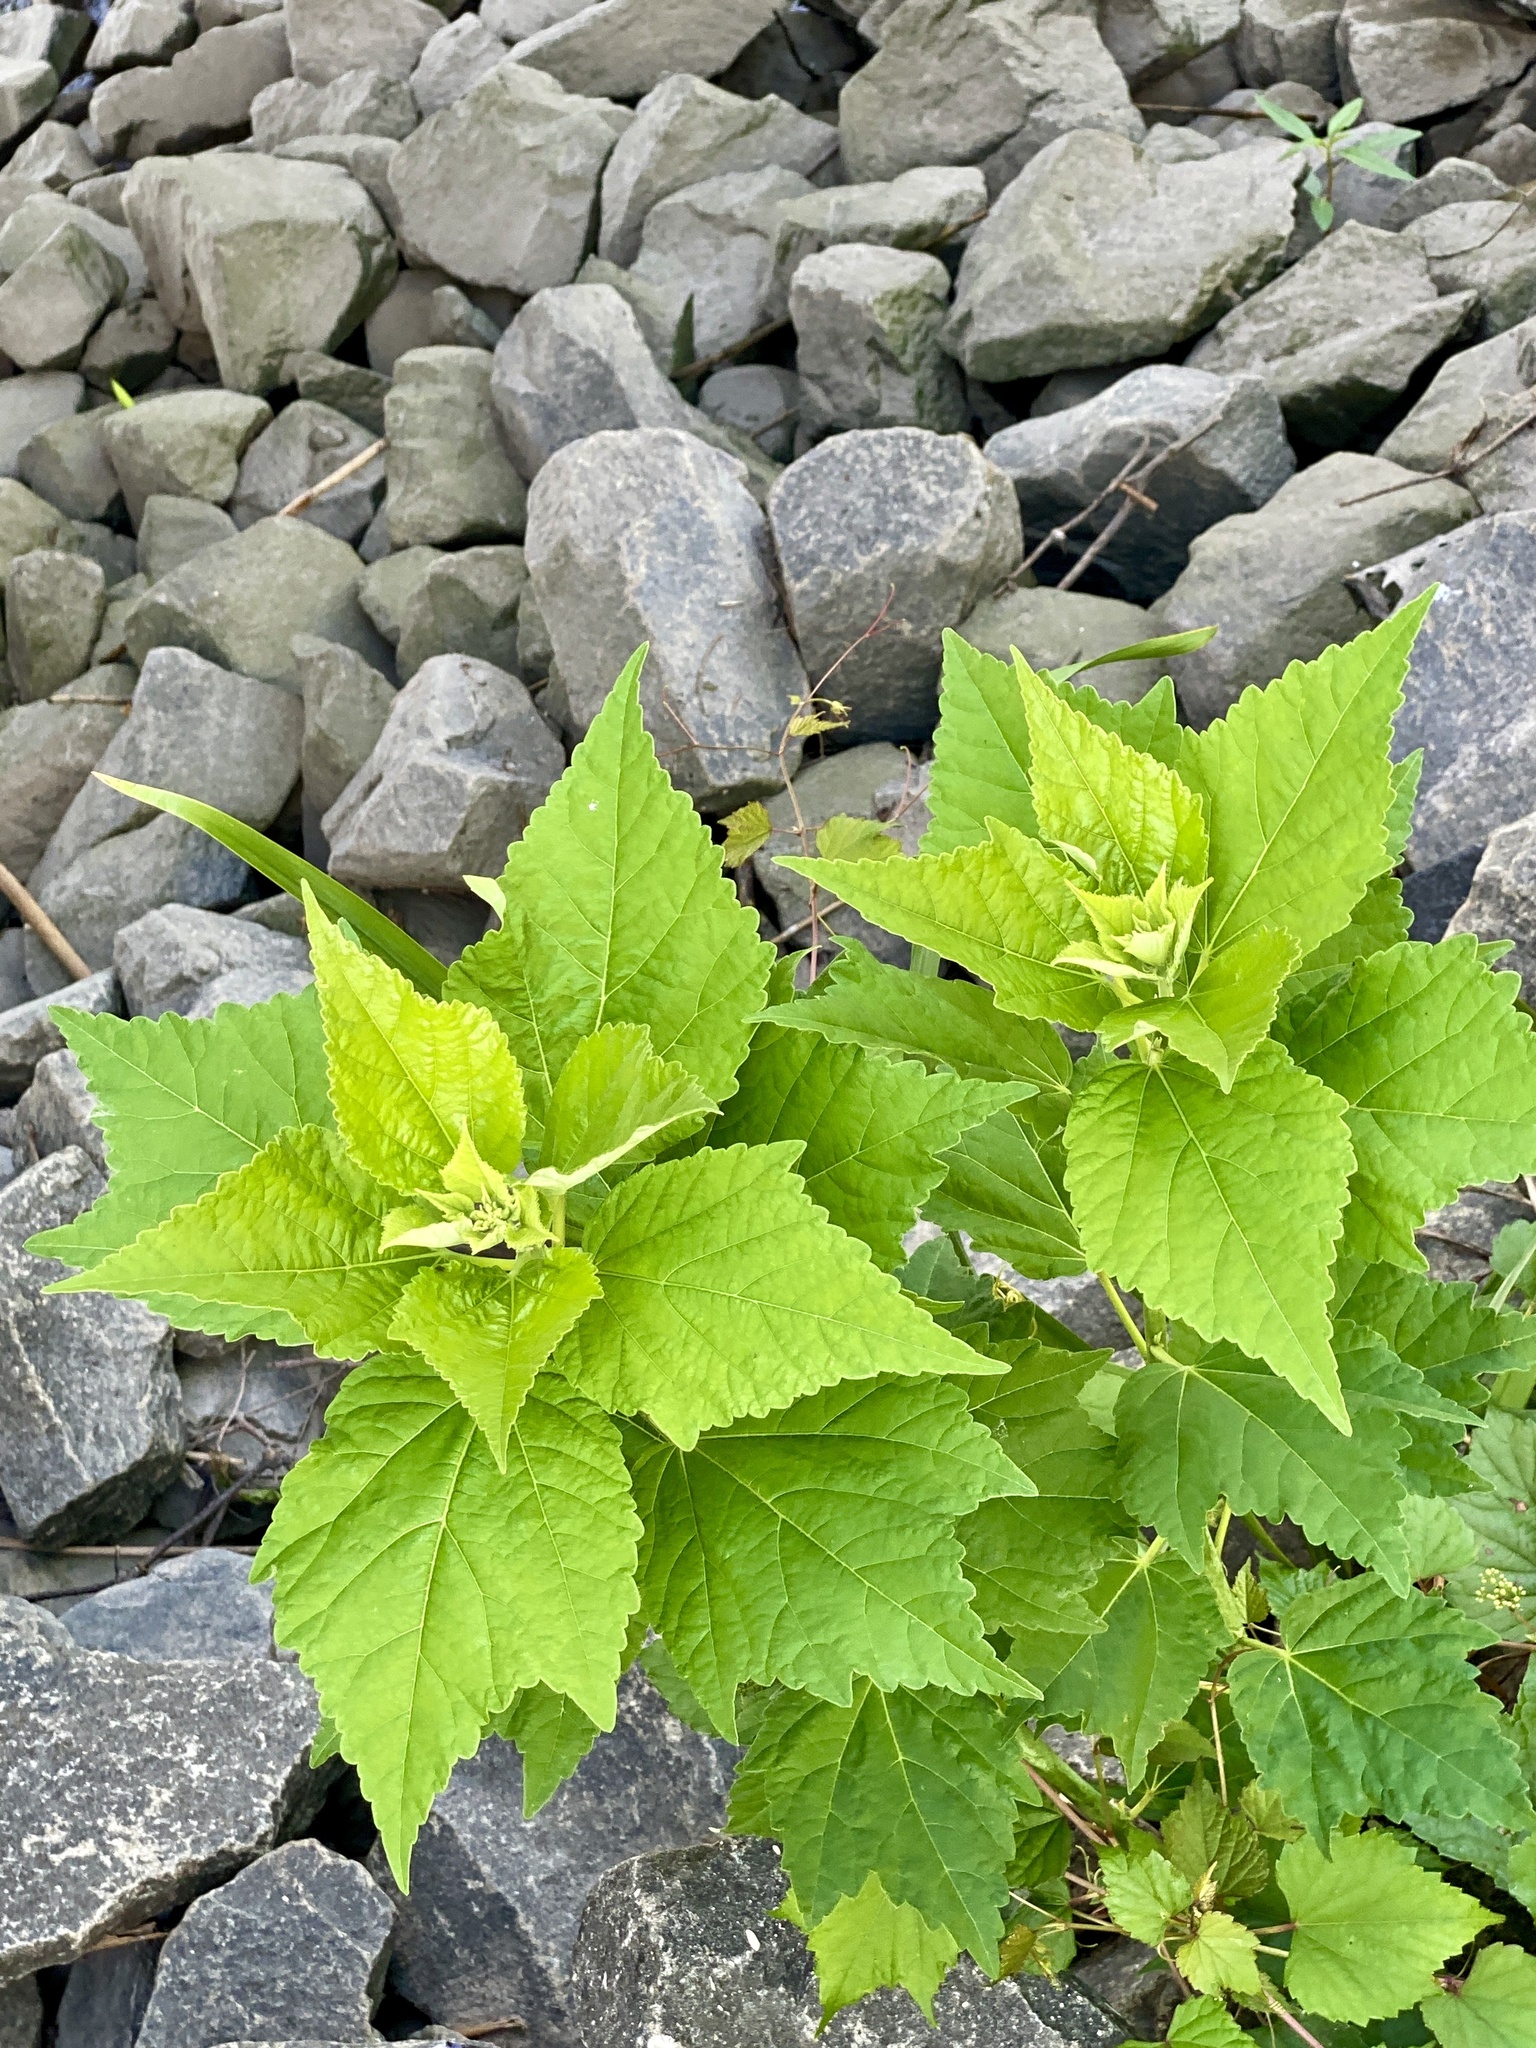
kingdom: Plantae
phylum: Tracheophyta
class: Magnoliopsida
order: Malvales
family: Malvaceae
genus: Hibiscus
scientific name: Hibiscus moscheutos
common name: Common rose-mallow
